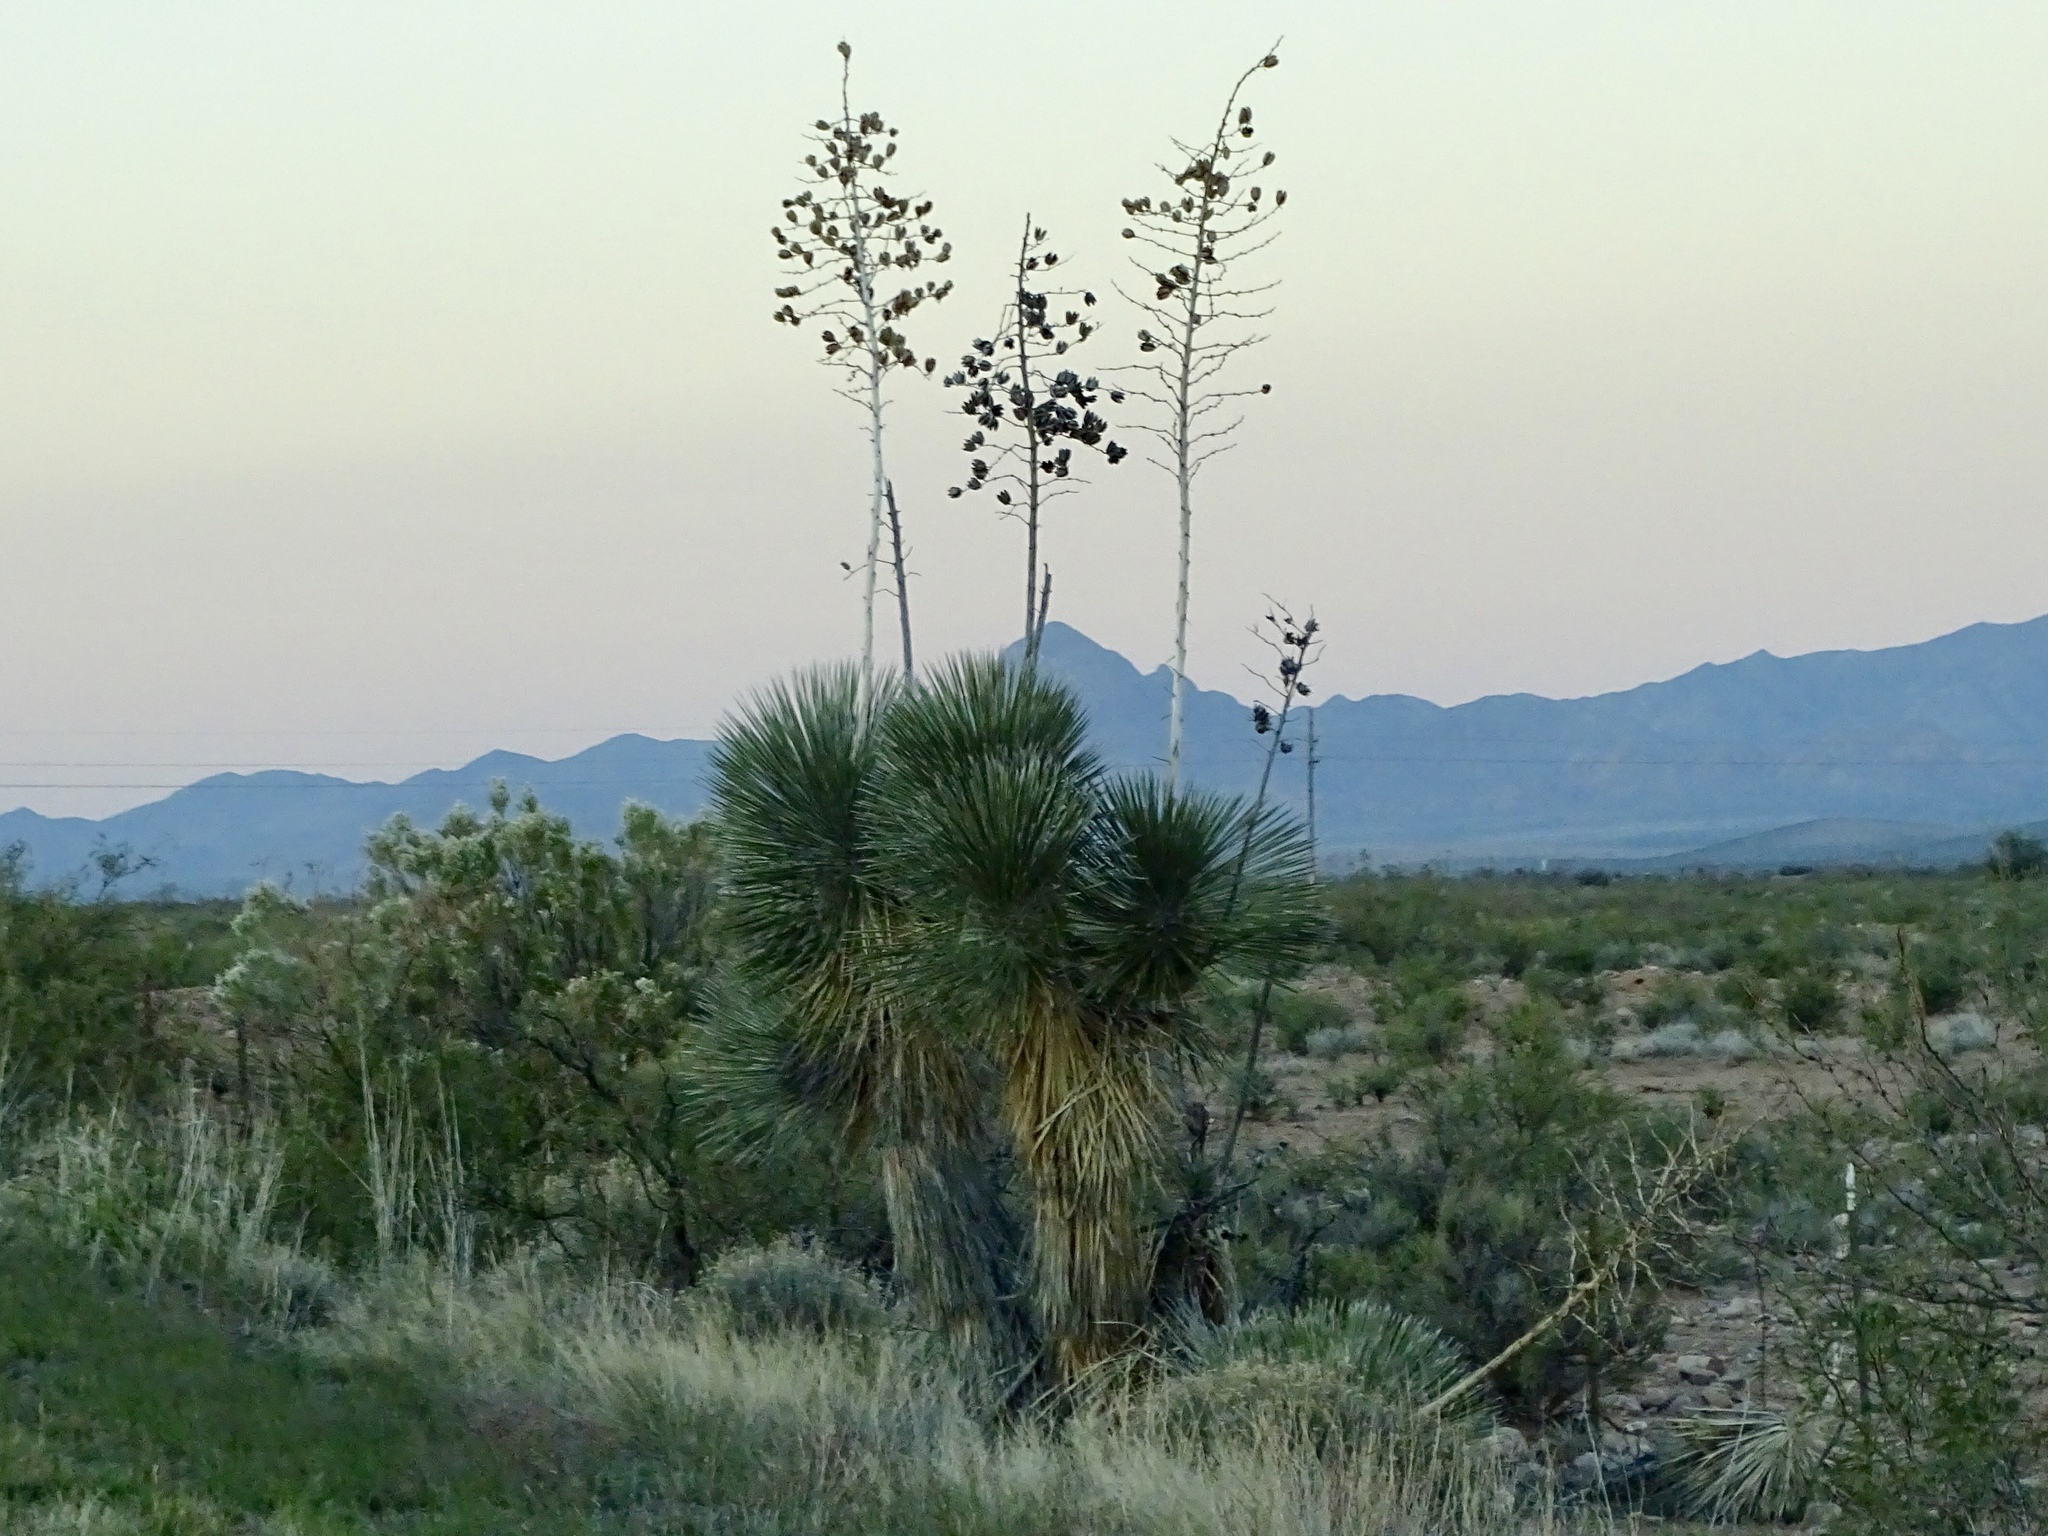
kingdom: Plantae
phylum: Tracheophyta
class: Liliopsida
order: Asparagales
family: Asparagaceae
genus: Yucca
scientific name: Yucca elata
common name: Palmella
